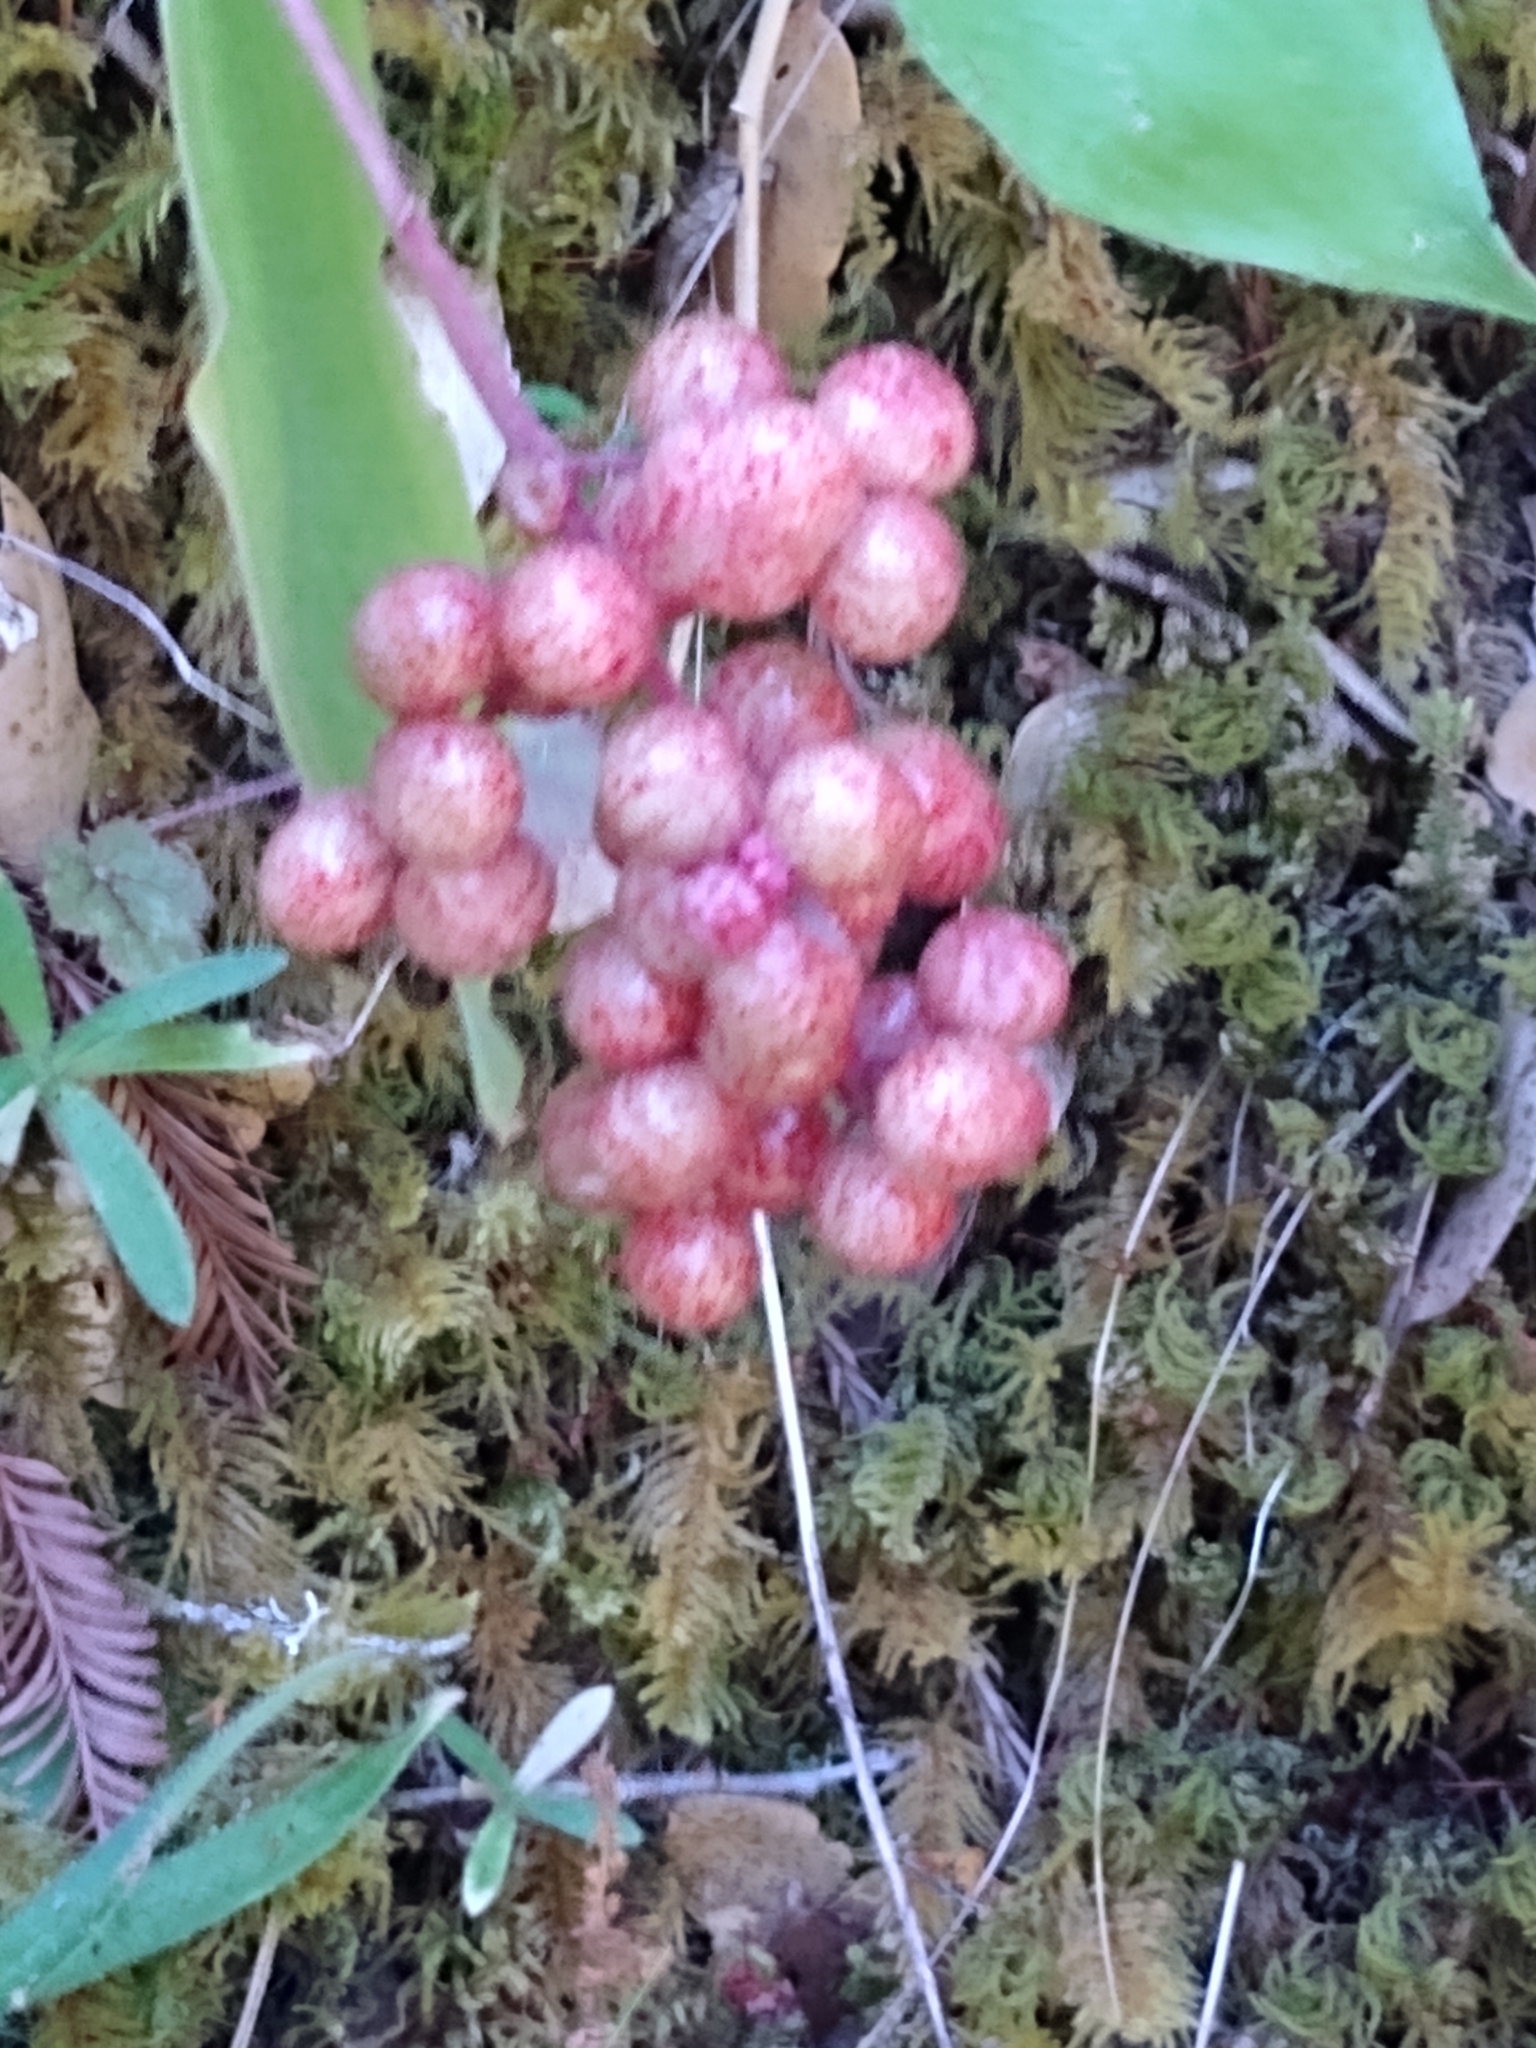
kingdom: Plantae
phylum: Tracheophyta
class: Liliopsida
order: Asparagales
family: Asparagaceae
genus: Maianthemum
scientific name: Maianthemum racemosum
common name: False spikenard
